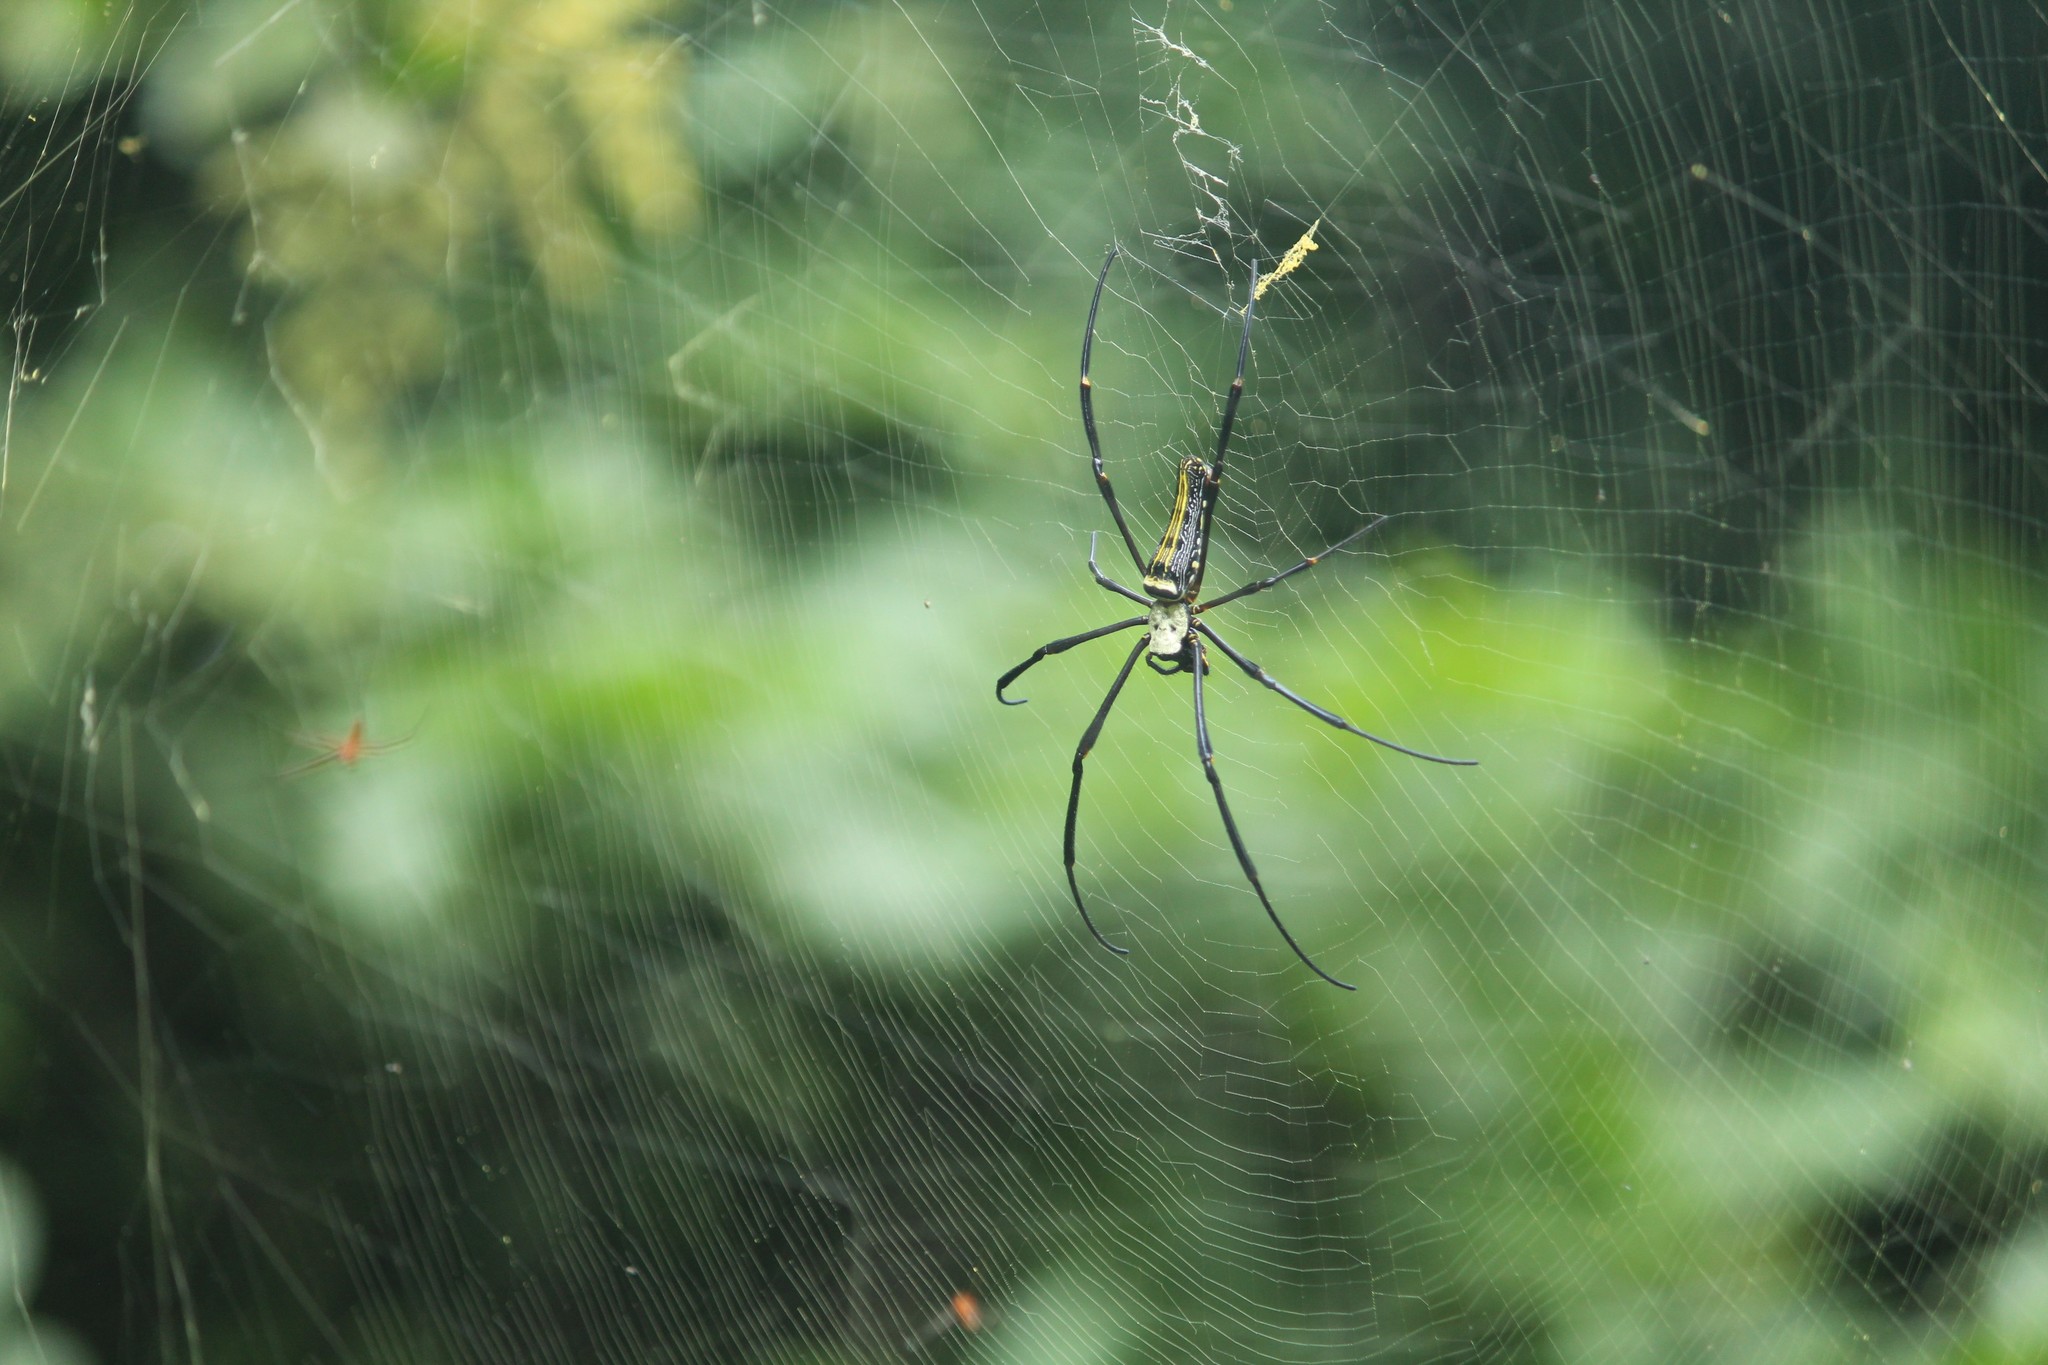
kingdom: Animalia
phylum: Arthropoda
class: Arachnida
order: Araneae
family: Araneidae
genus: Nephila
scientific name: Nephila pilipes
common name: Giant golden orb weaver
